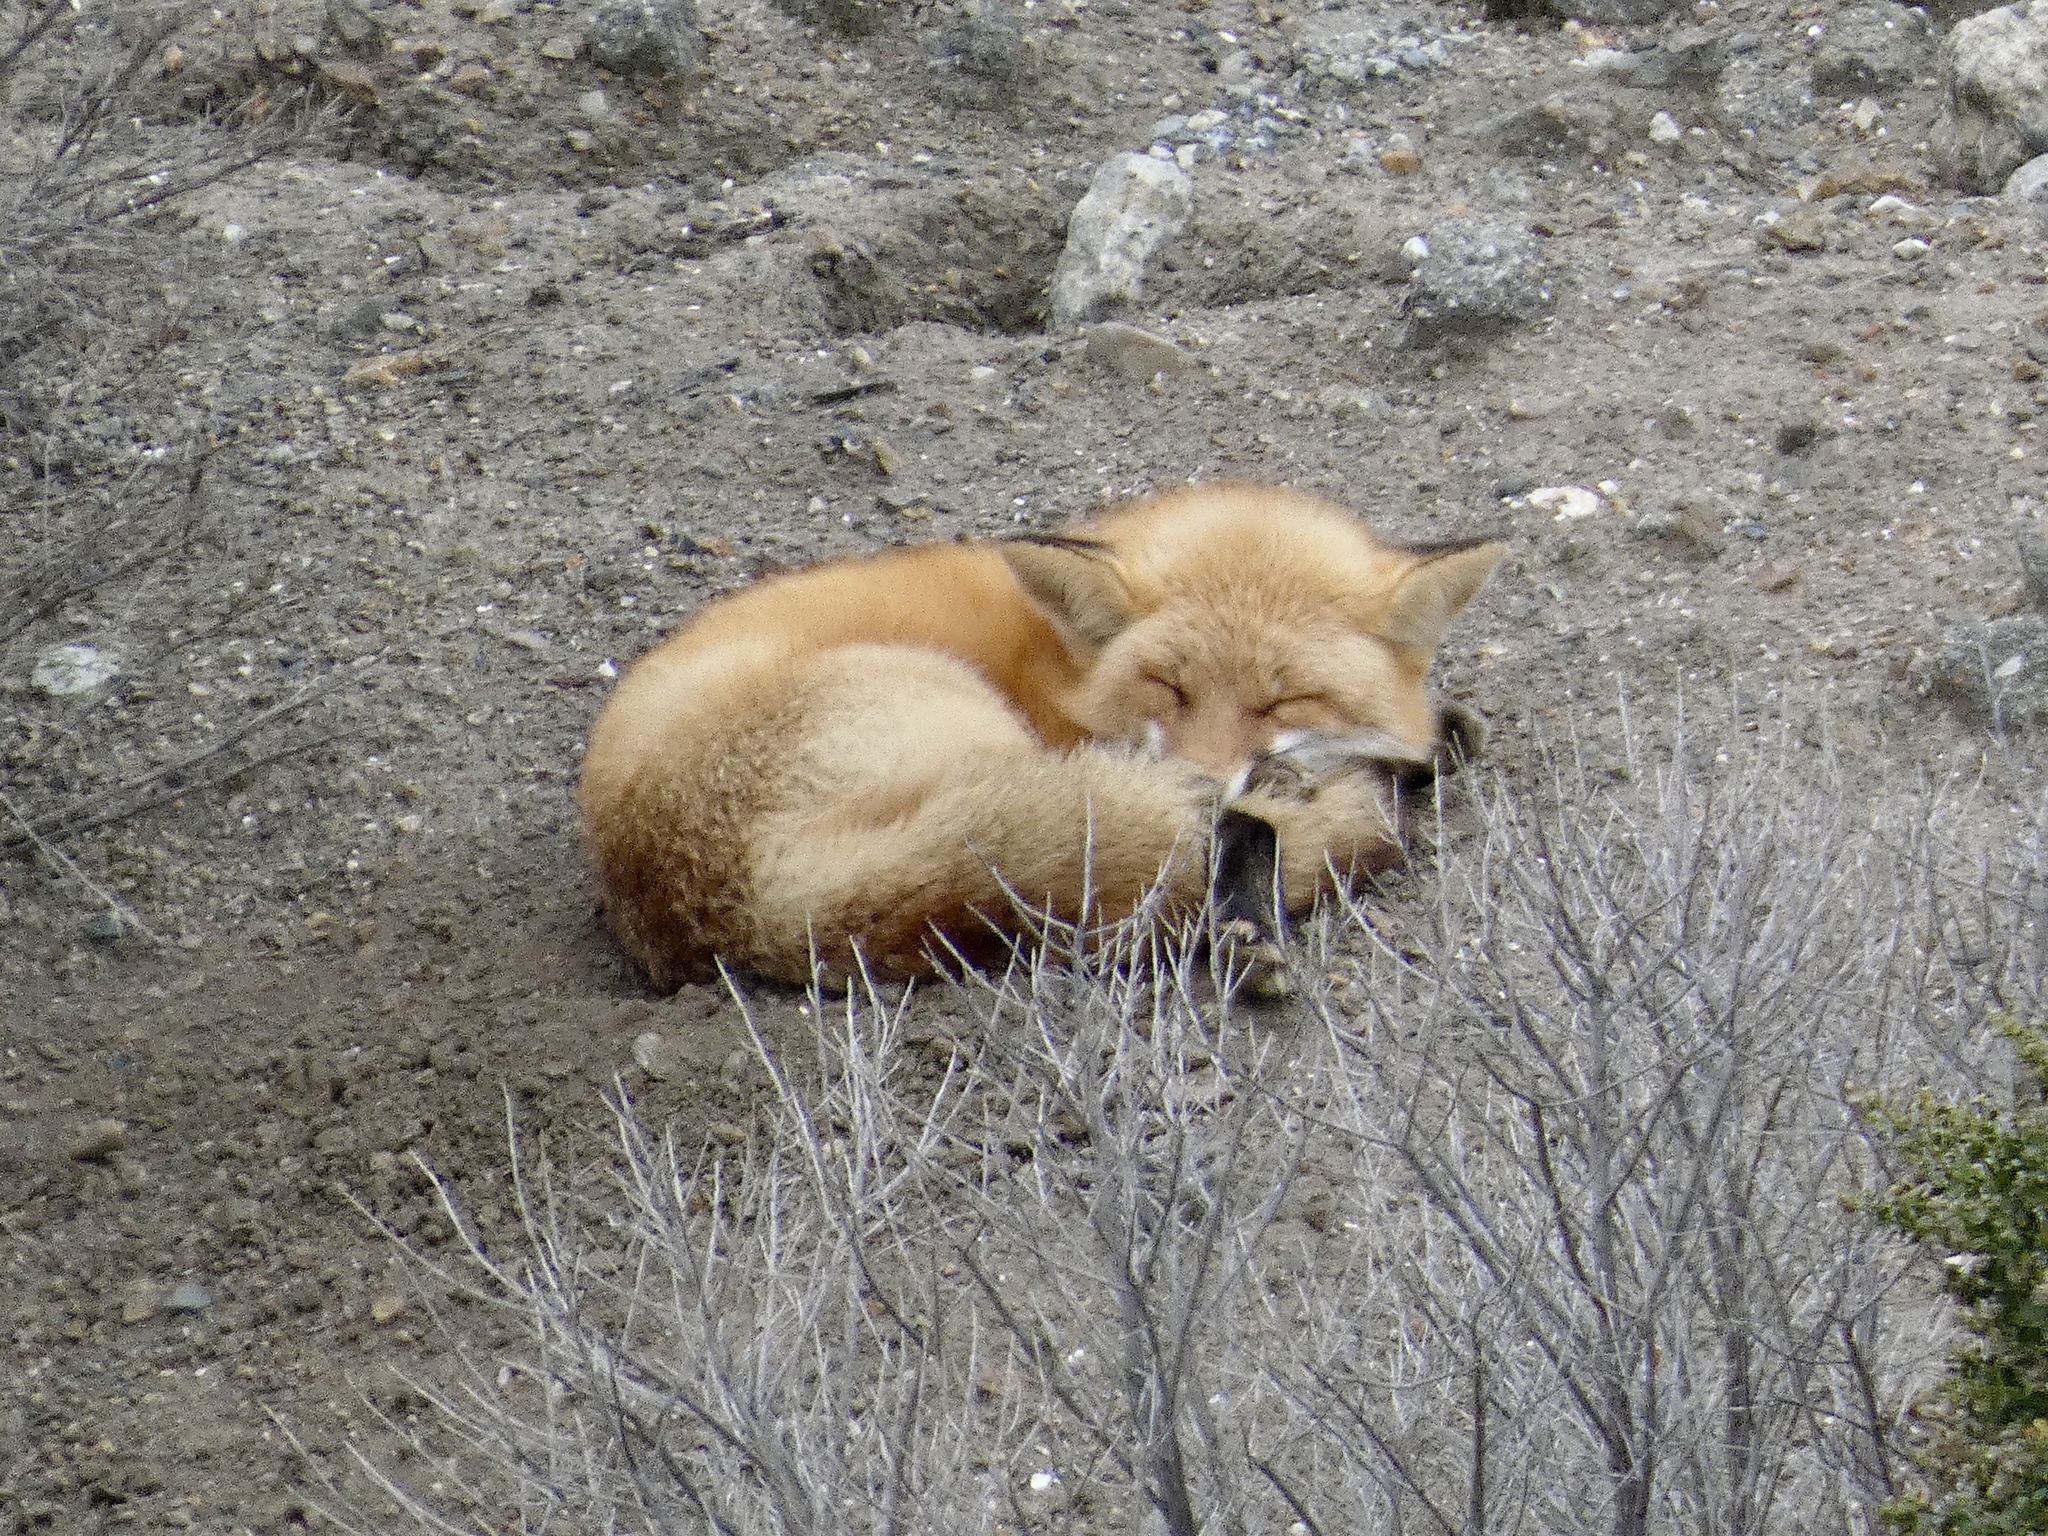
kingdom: Animalia
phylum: Chordata
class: Mammalia
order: Carnivora
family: Canidae
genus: Vulpes
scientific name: Vulpes vulpes
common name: Red fox
